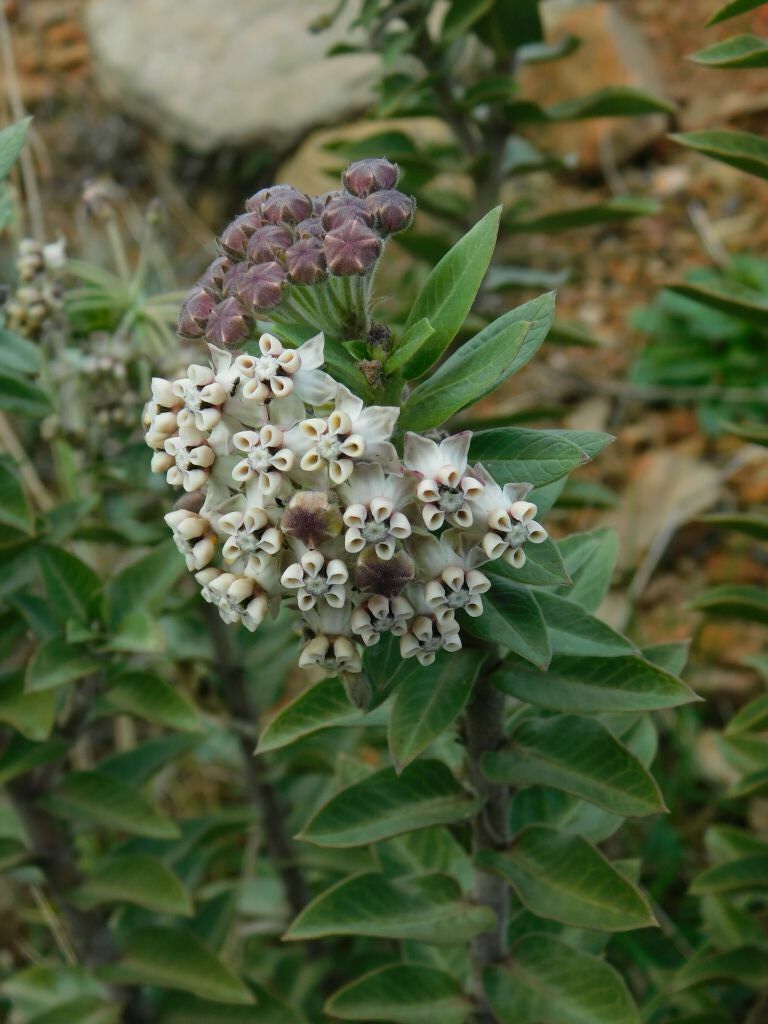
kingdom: Plantae
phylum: Tracheophyta
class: Magnoliopsida
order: Gentianales
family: Apocynaceae
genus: Gomphocarpus
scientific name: Gomphocarpus cancellatus
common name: Wild cotton
